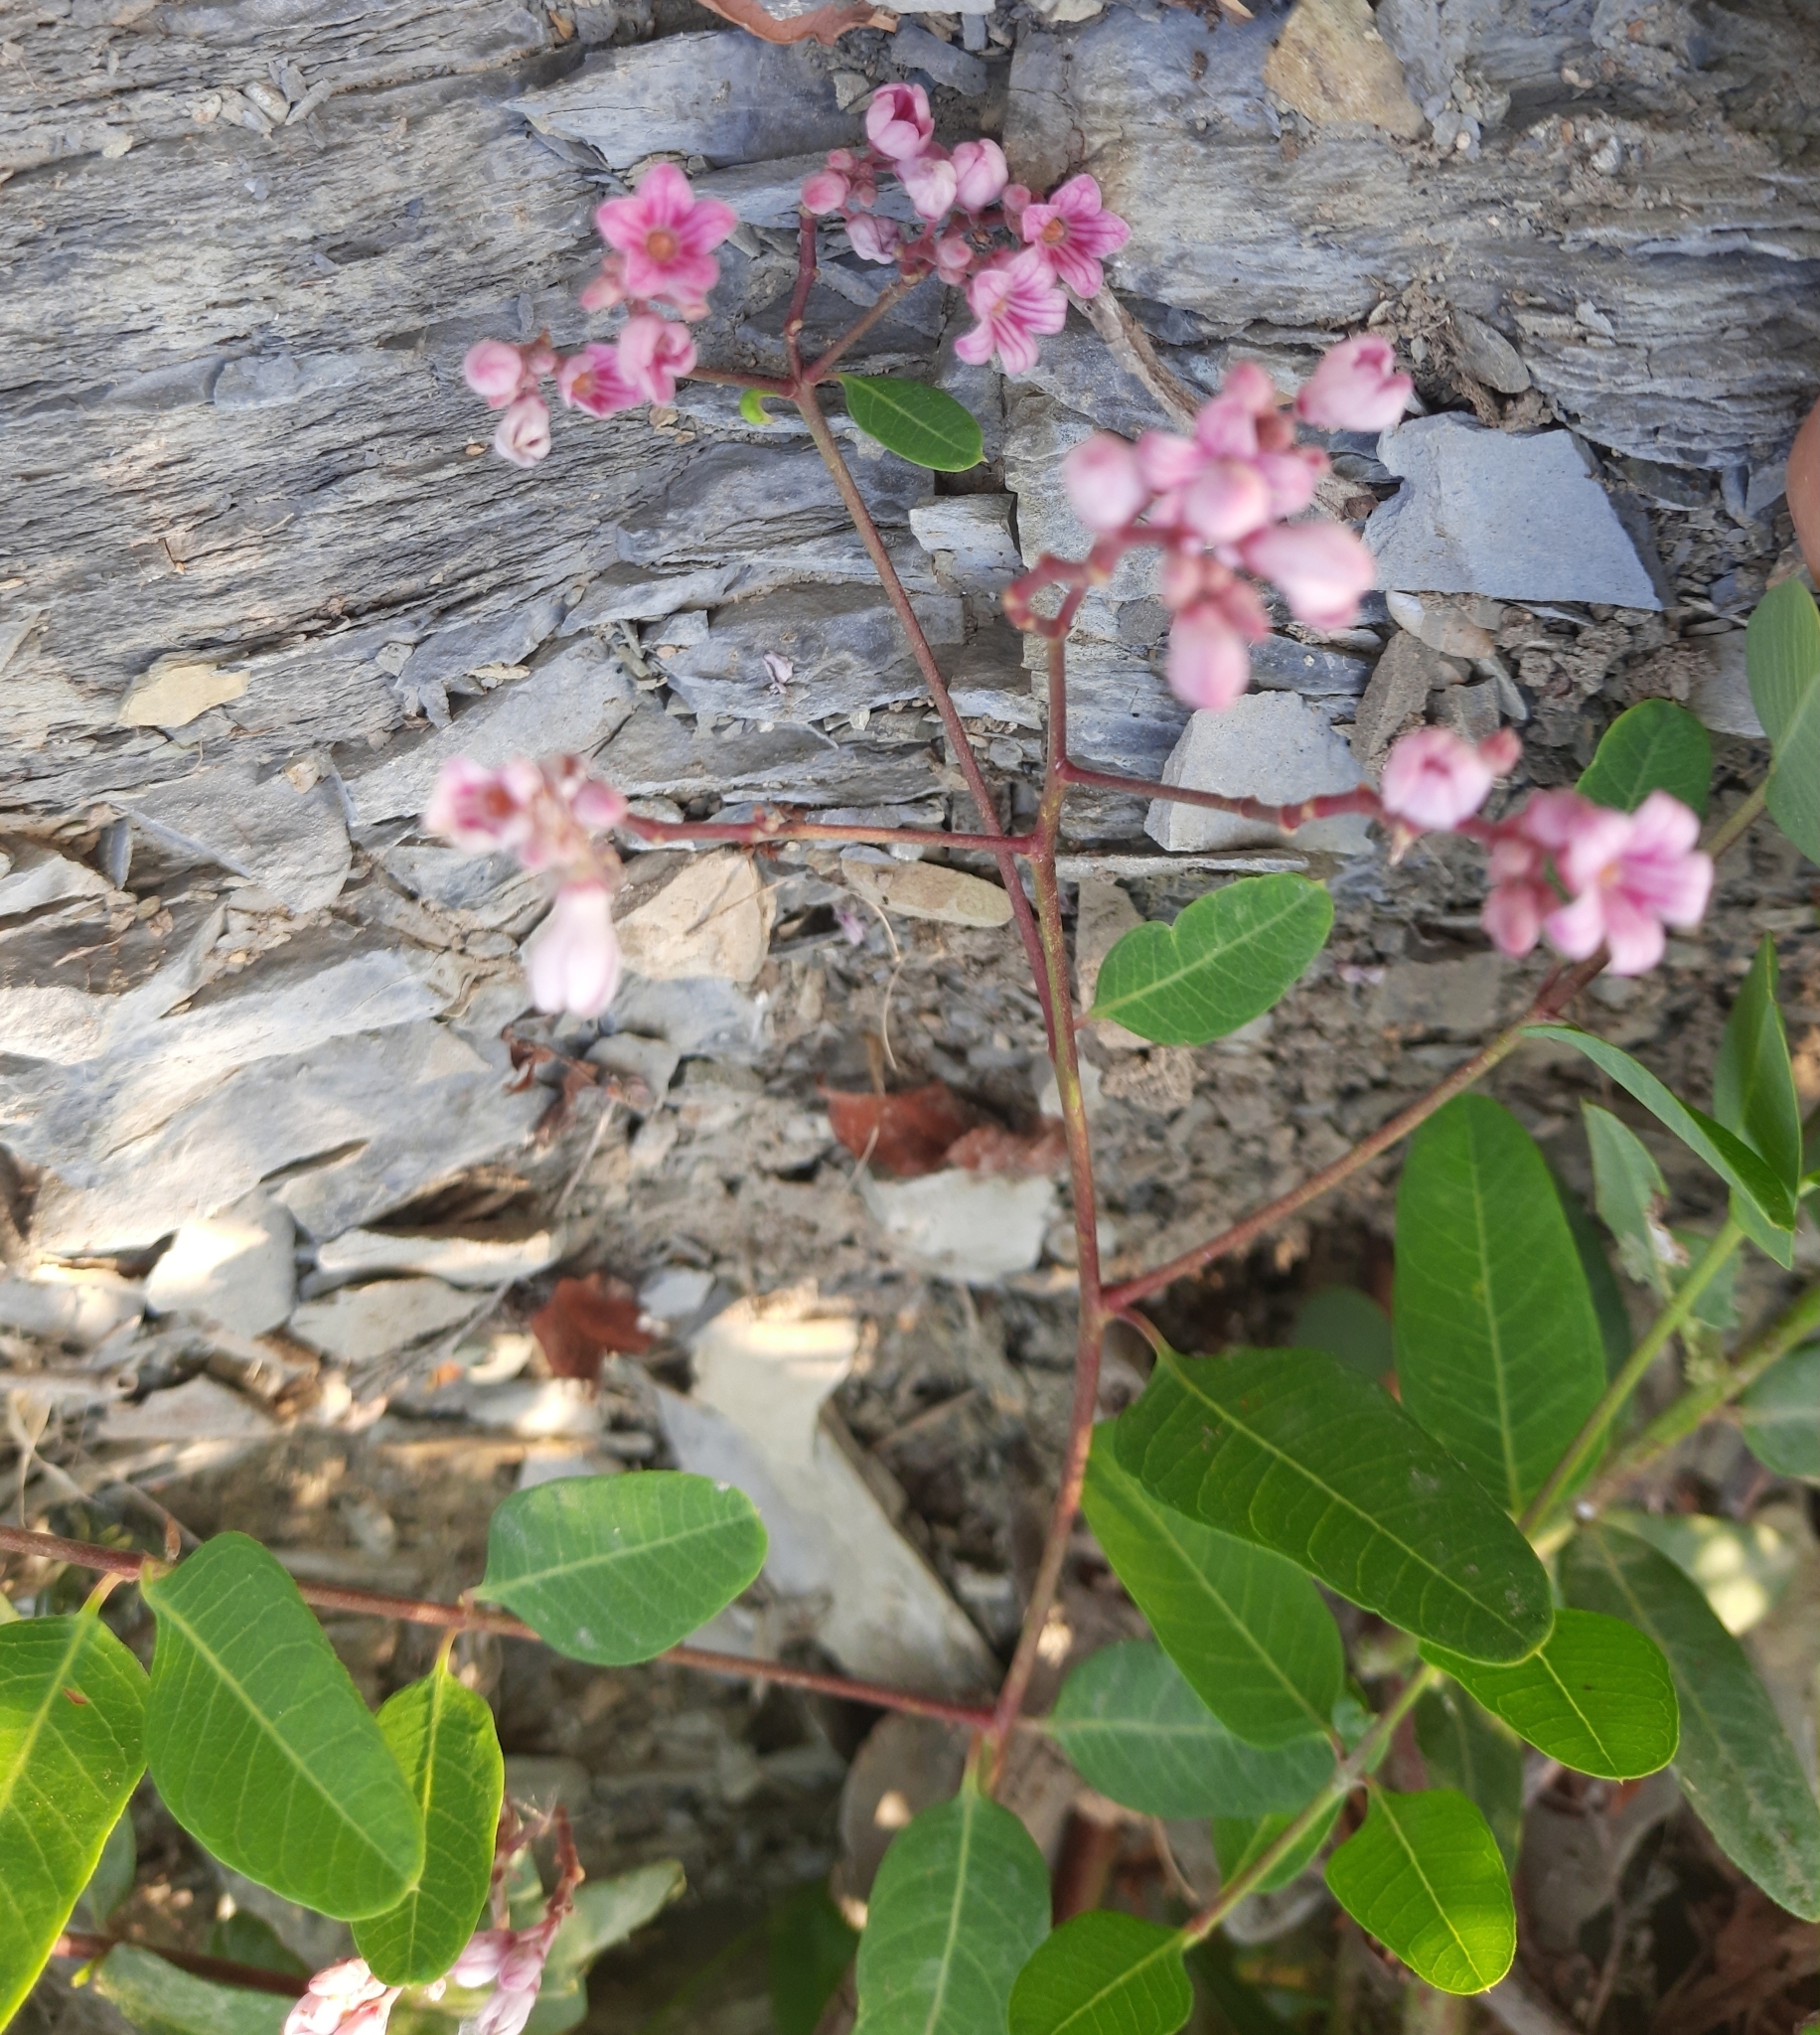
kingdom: Plantae
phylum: Tracheophyta
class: Magnoliopsida
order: Gentianales
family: Apocynaceae
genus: Poacynum
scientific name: Poacynum venetum
